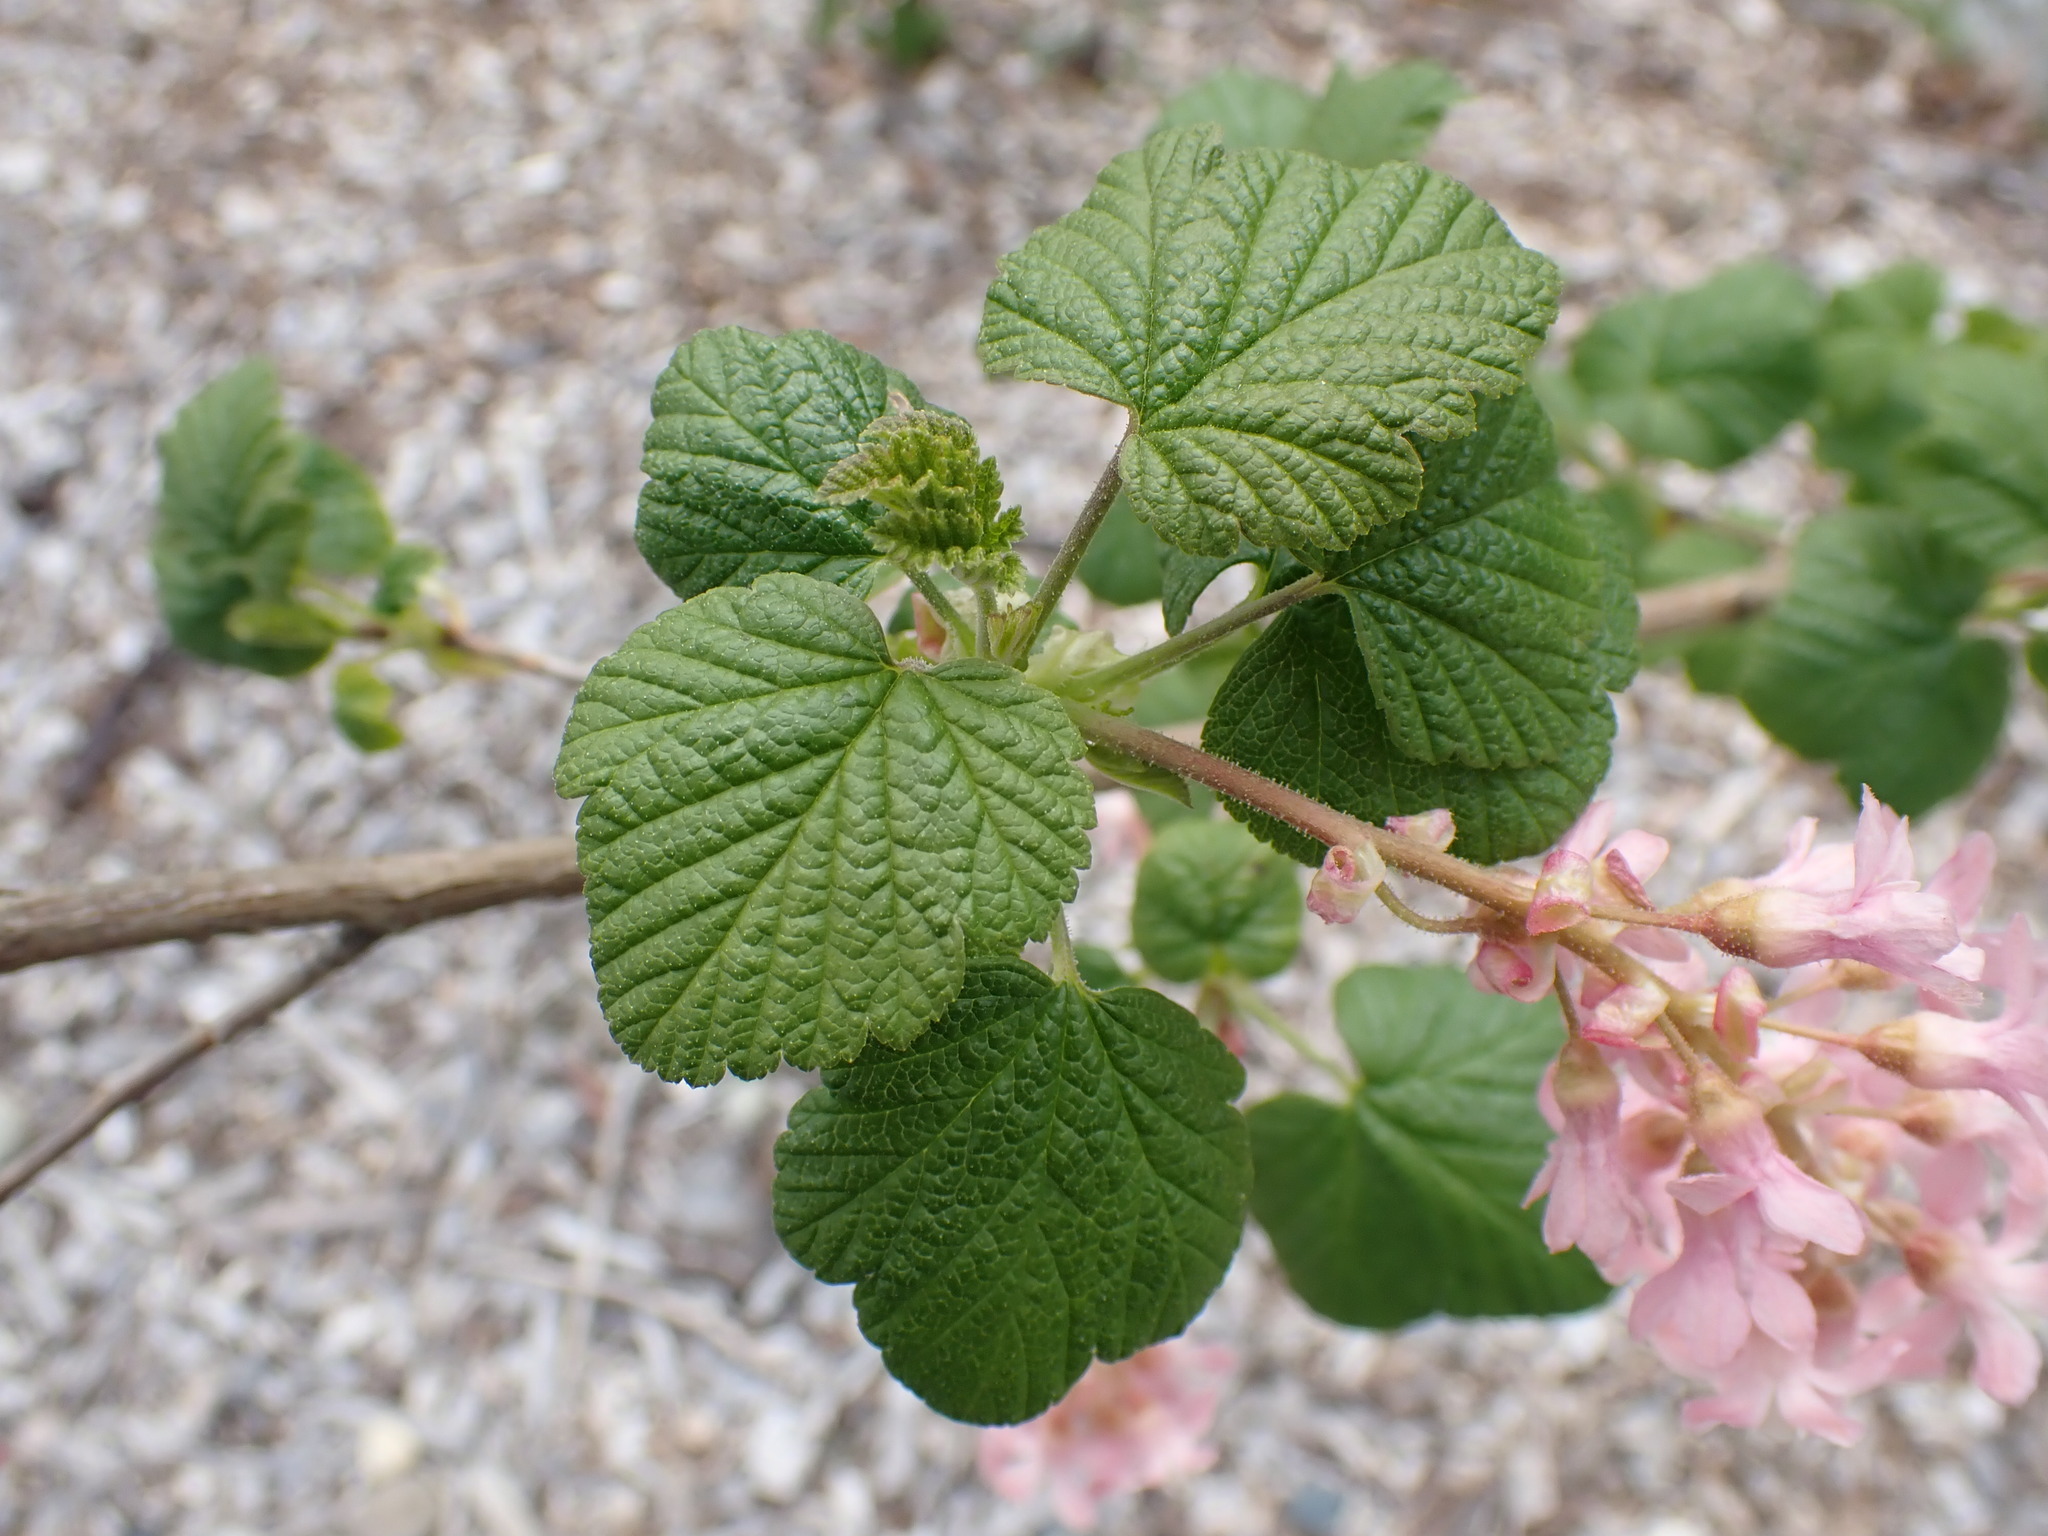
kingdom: Plantae
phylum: Tracheophyta
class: Magnoliopsida
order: Saxifragales
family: Grossulariaceae
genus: Ribes
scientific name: Ribes sanguineum
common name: Flowering currant
